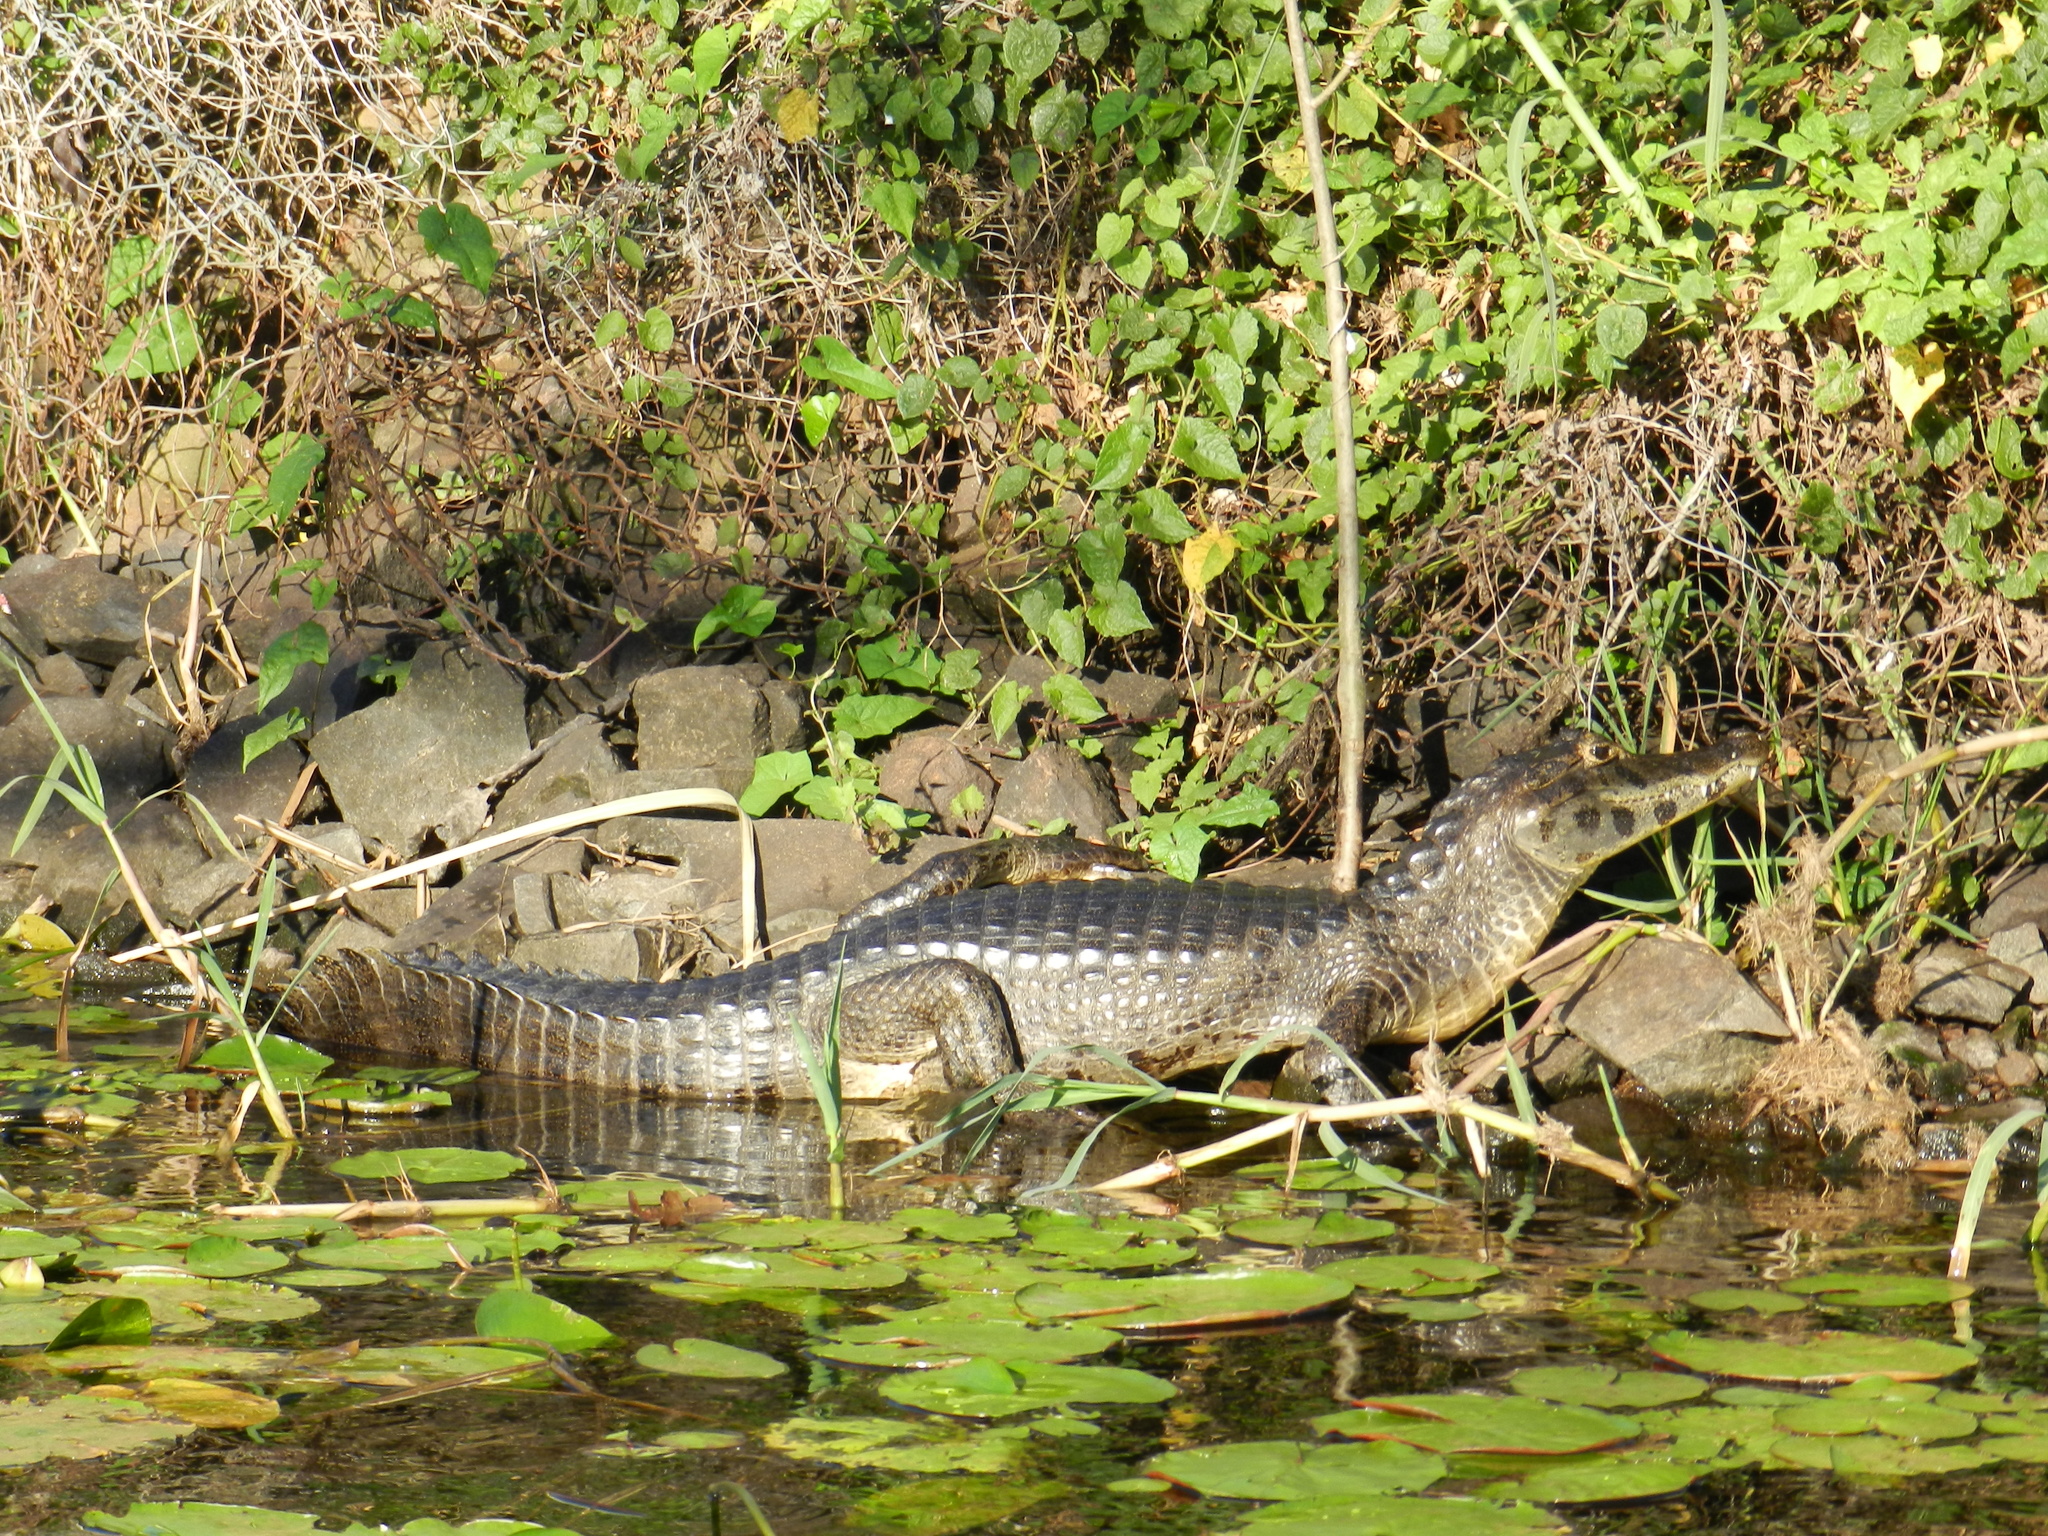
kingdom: Animalia
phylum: Chordata
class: Crocodylia
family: Alligatoridae
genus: Caiman
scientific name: Caiman yacare
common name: Yacare caiman
